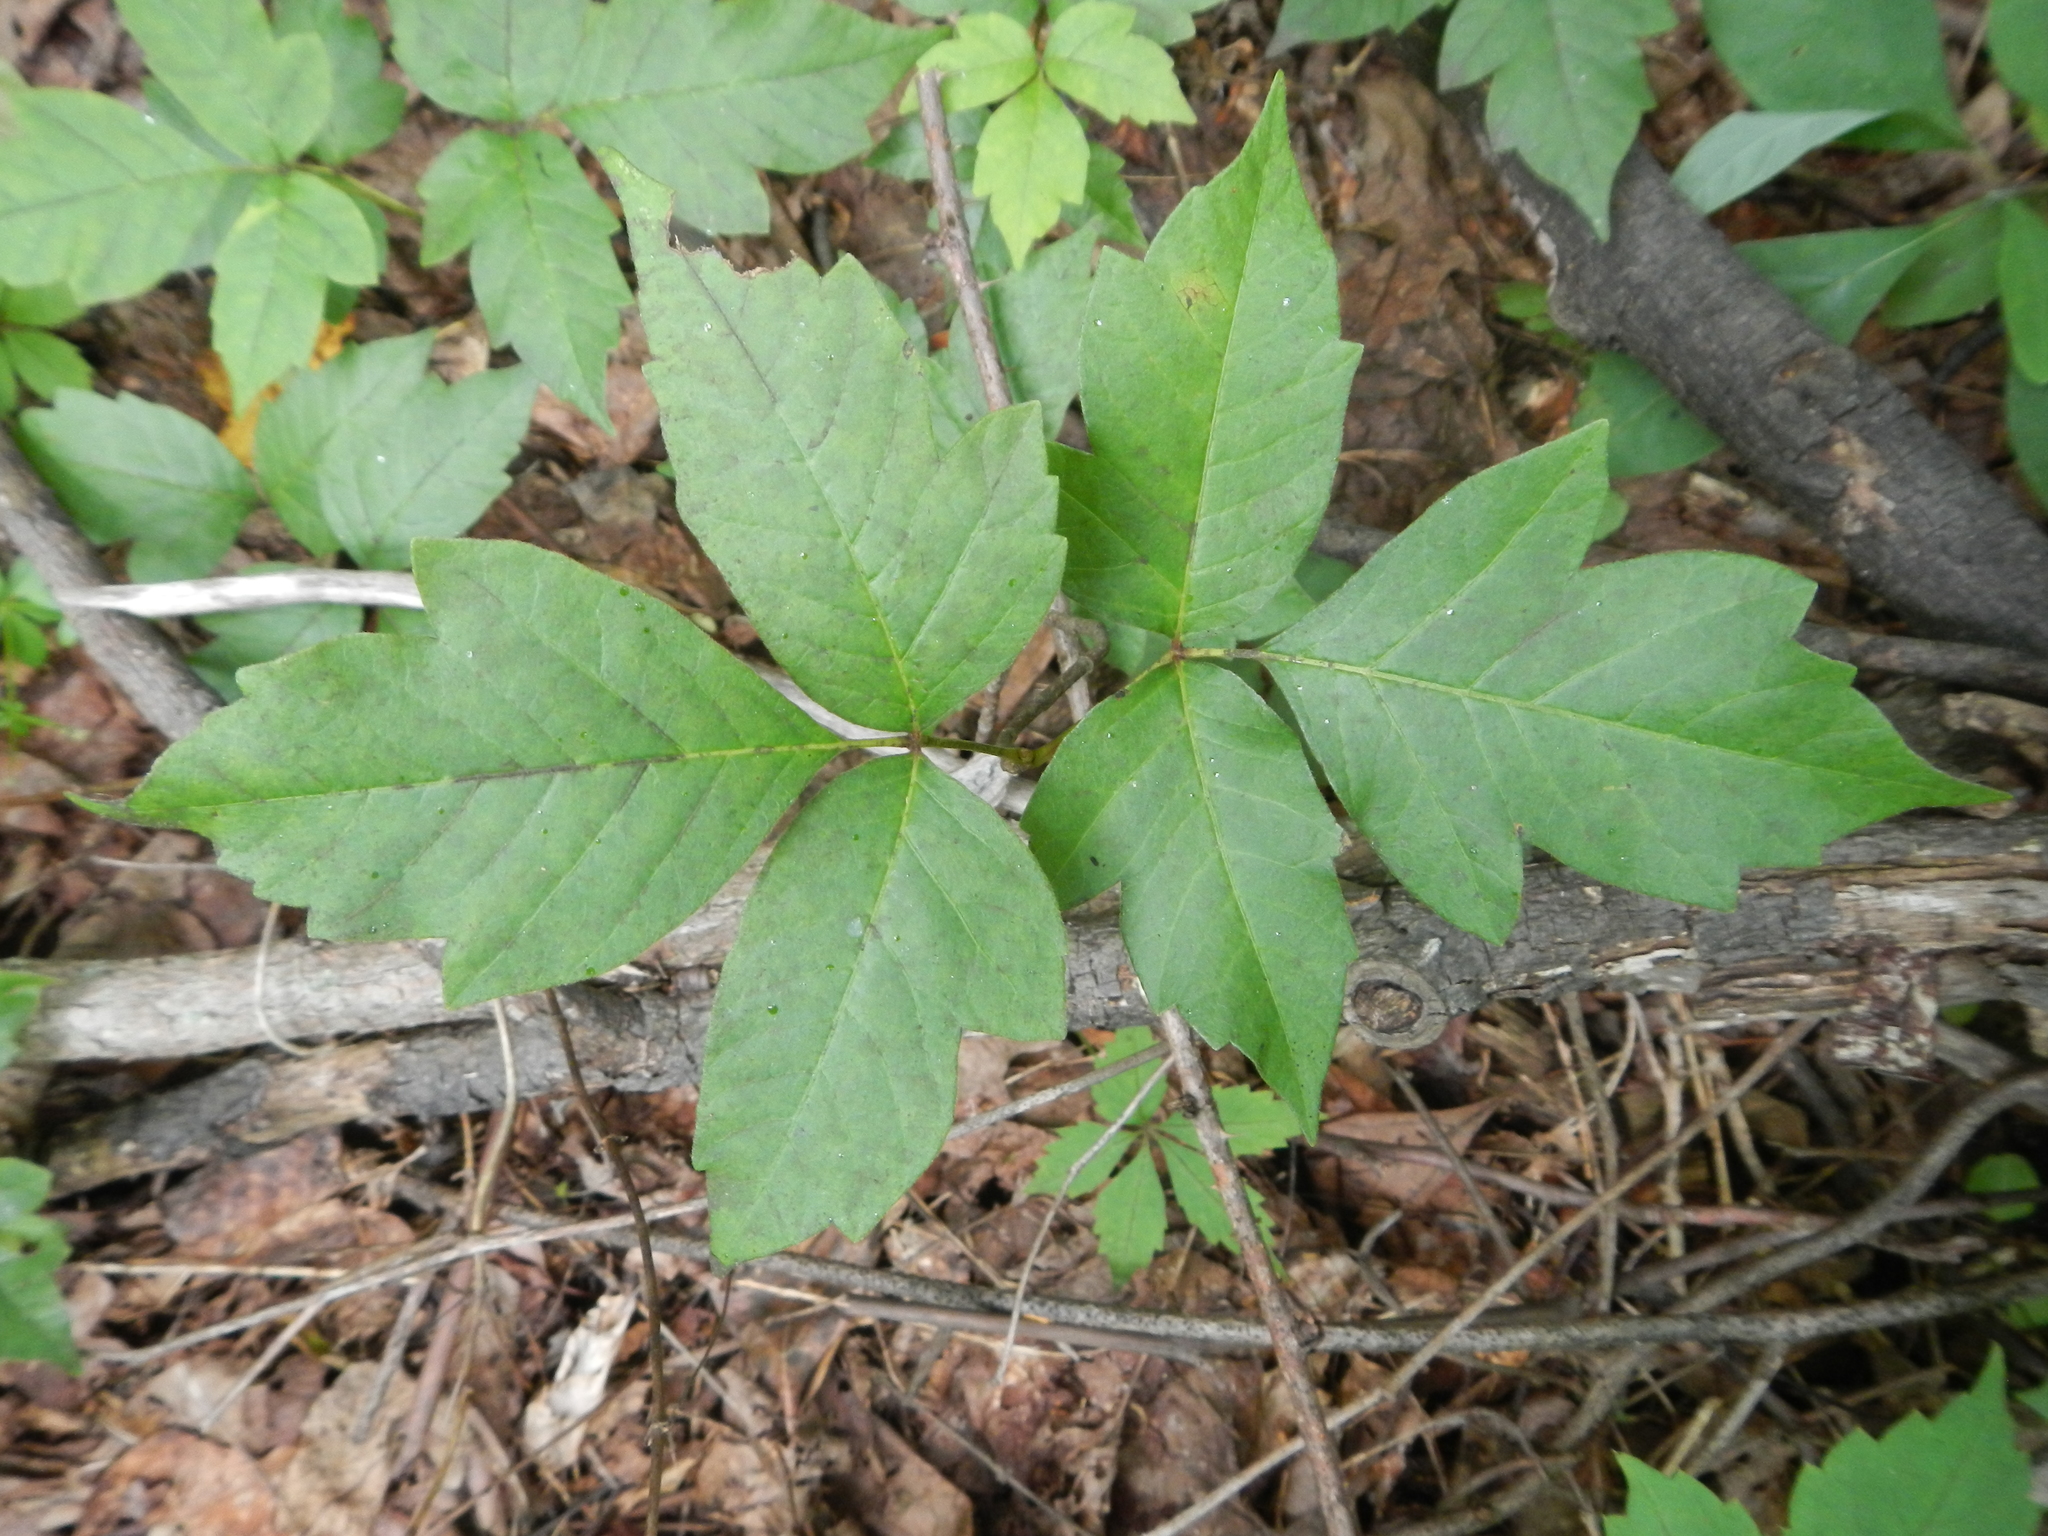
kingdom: Plantae
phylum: Tracheophyta
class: Magnoliopsida
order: Sapindales
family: Anacardiaceae
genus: Toxicodendron
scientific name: Toxicodendron radicans
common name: Poison ivy
